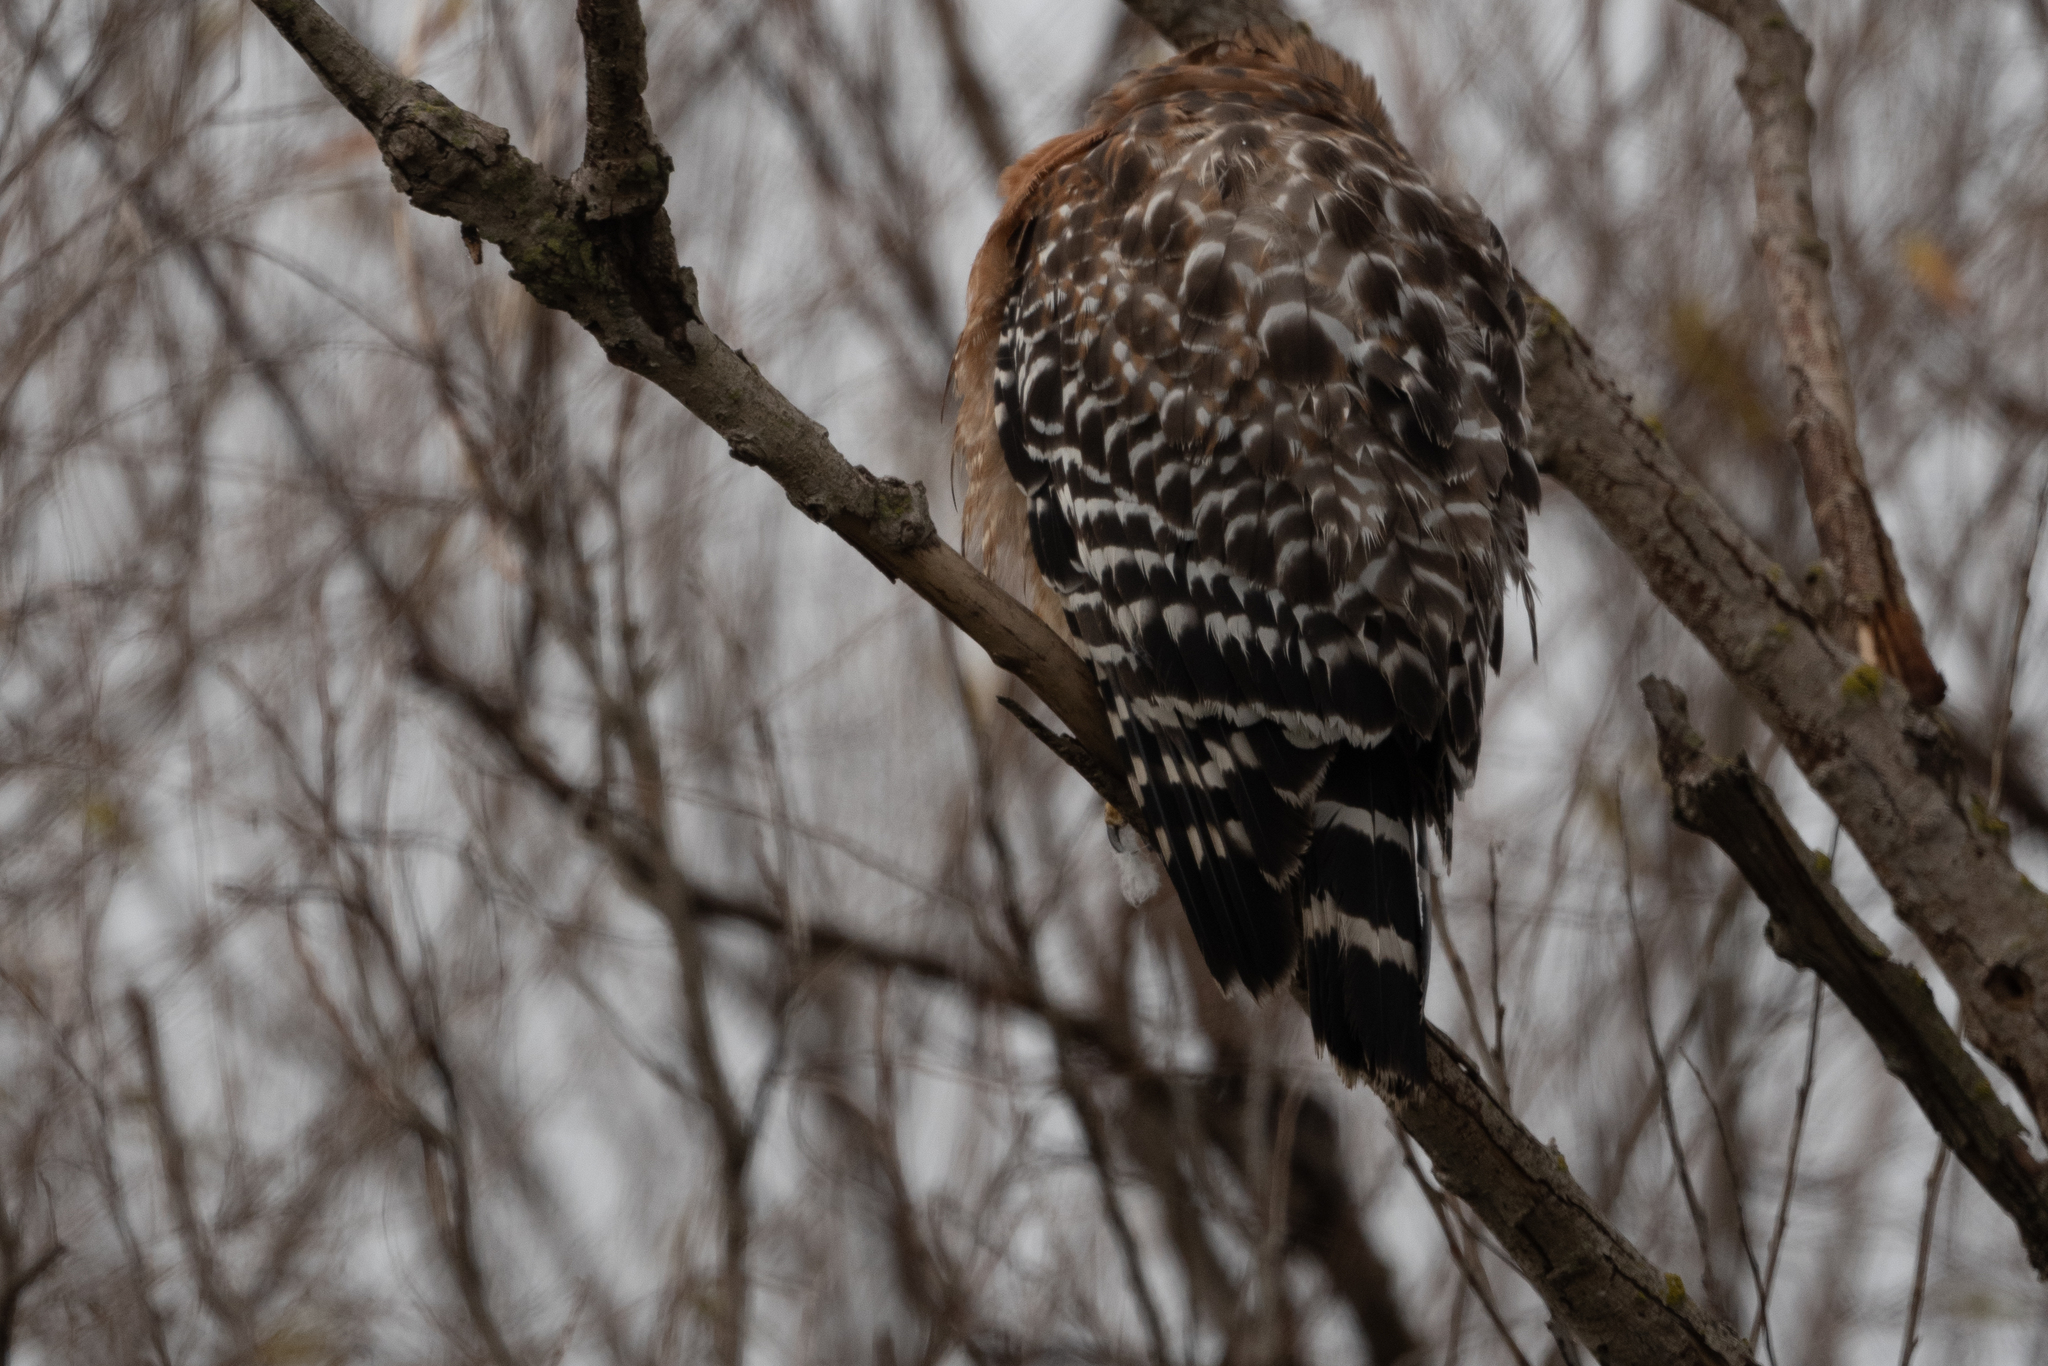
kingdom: Animalia
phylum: Chordata
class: Aves
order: Accipitriformes
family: Accipitridae
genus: Buteo
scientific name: Buteo lineatus
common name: Red-shouldered hawk
